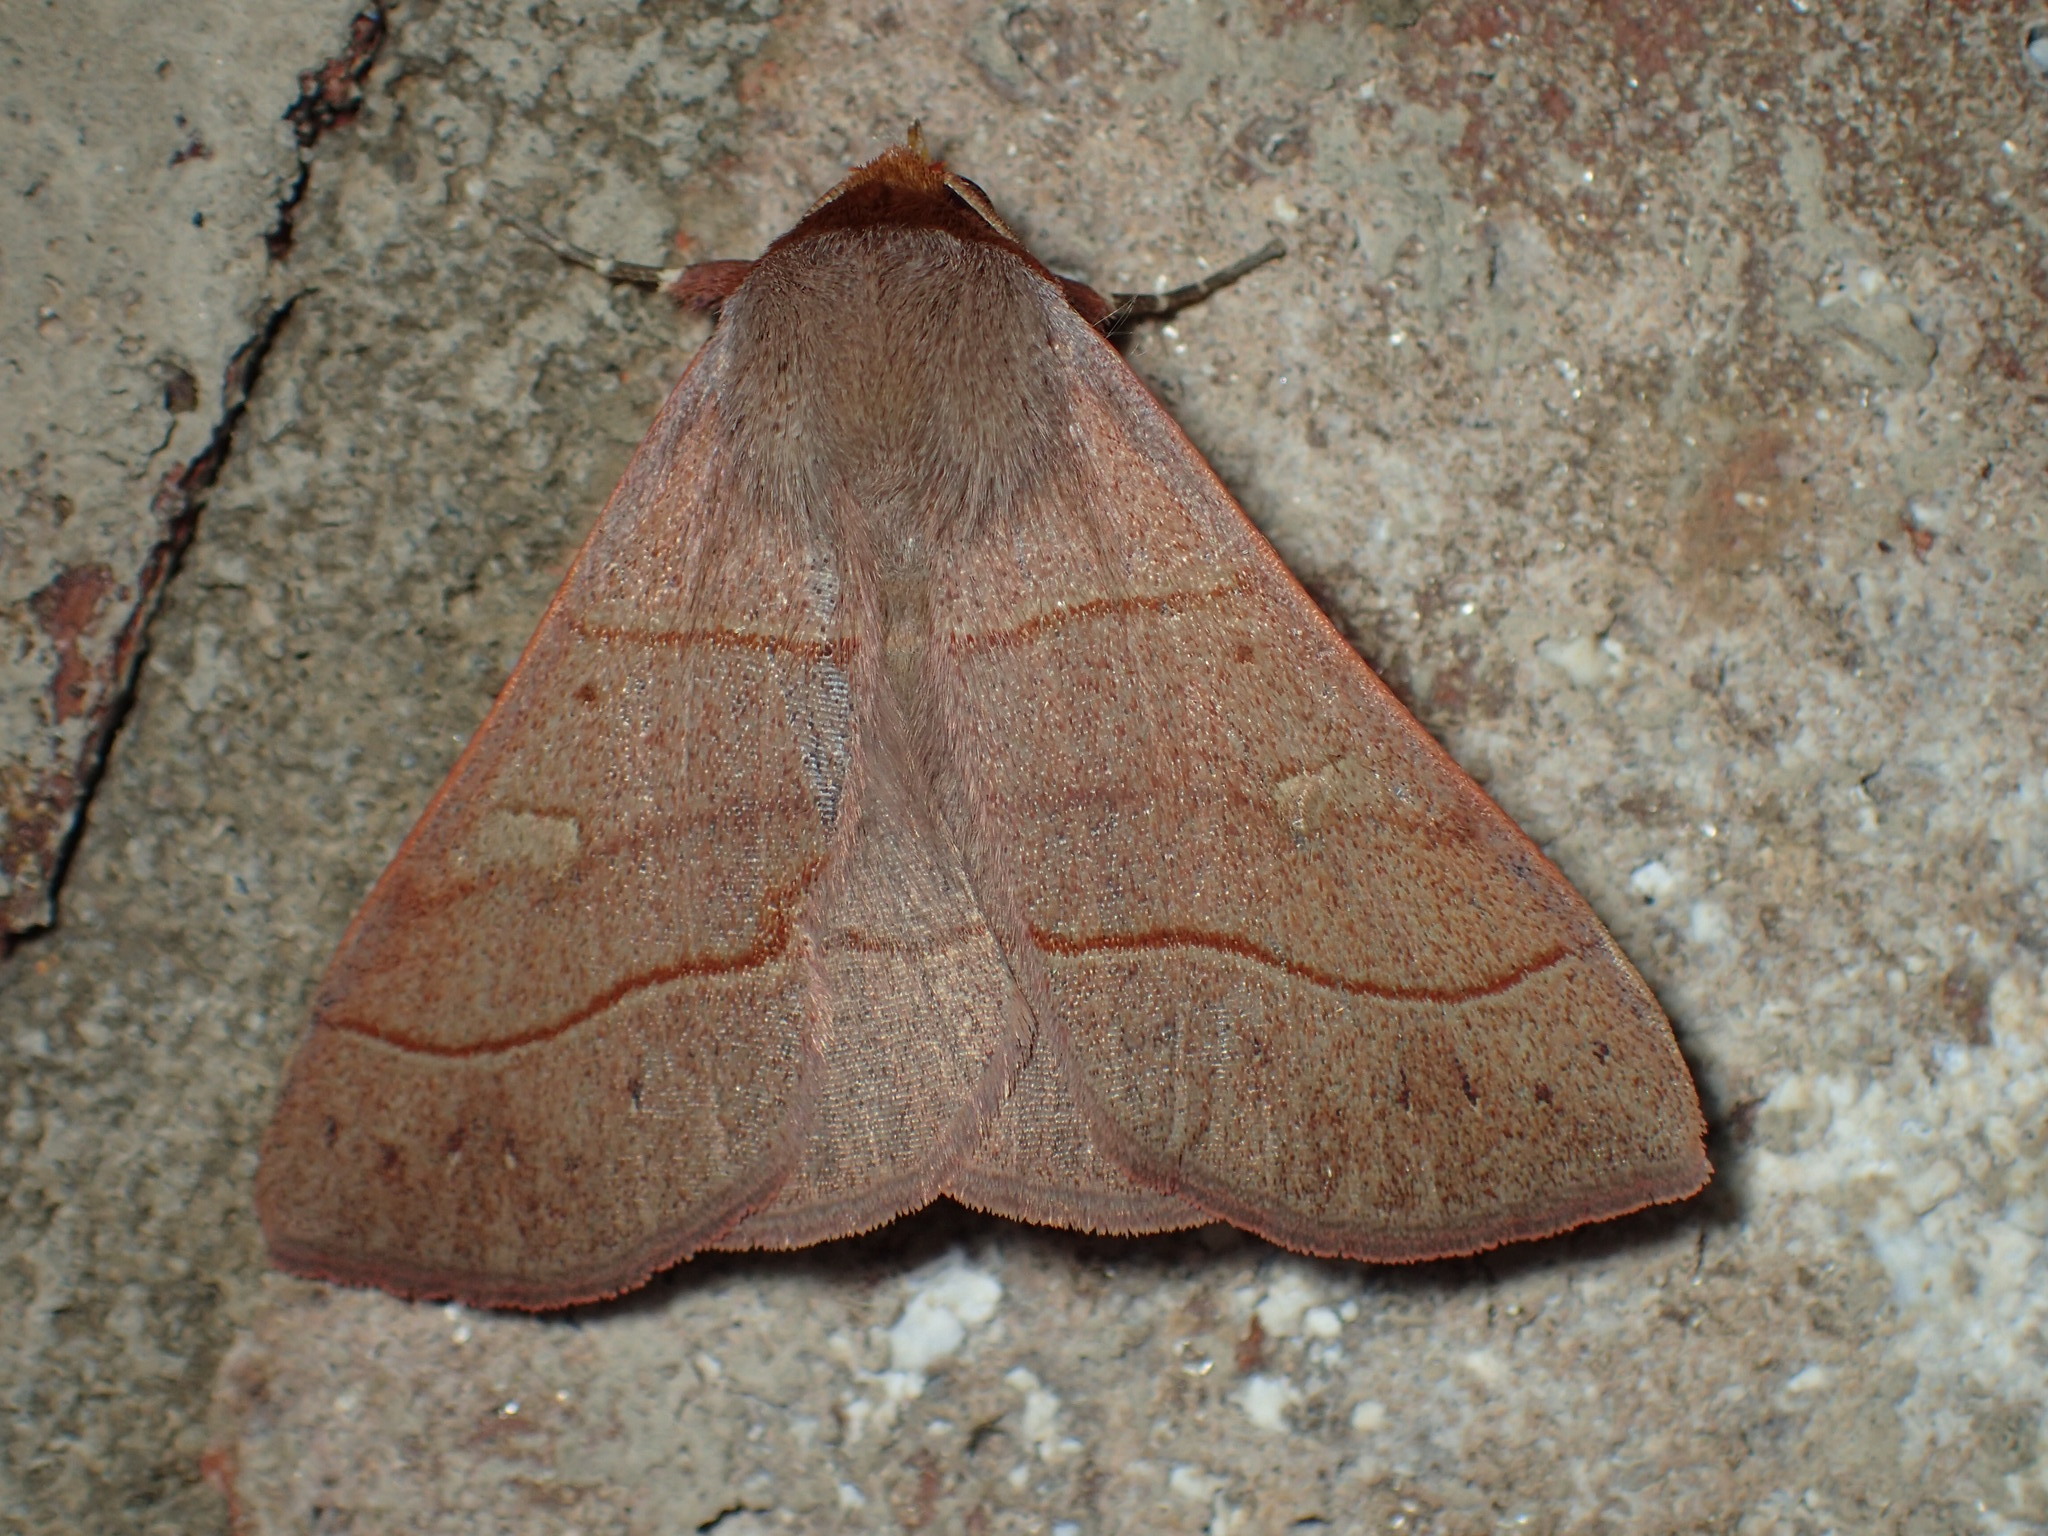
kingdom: Animalia
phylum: Arthropoda
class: Insecta
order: Lepidoptera
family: Erebidae
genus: Panopoda
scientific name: Panopoda rufimargo
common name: Red-lined panopoda moth
